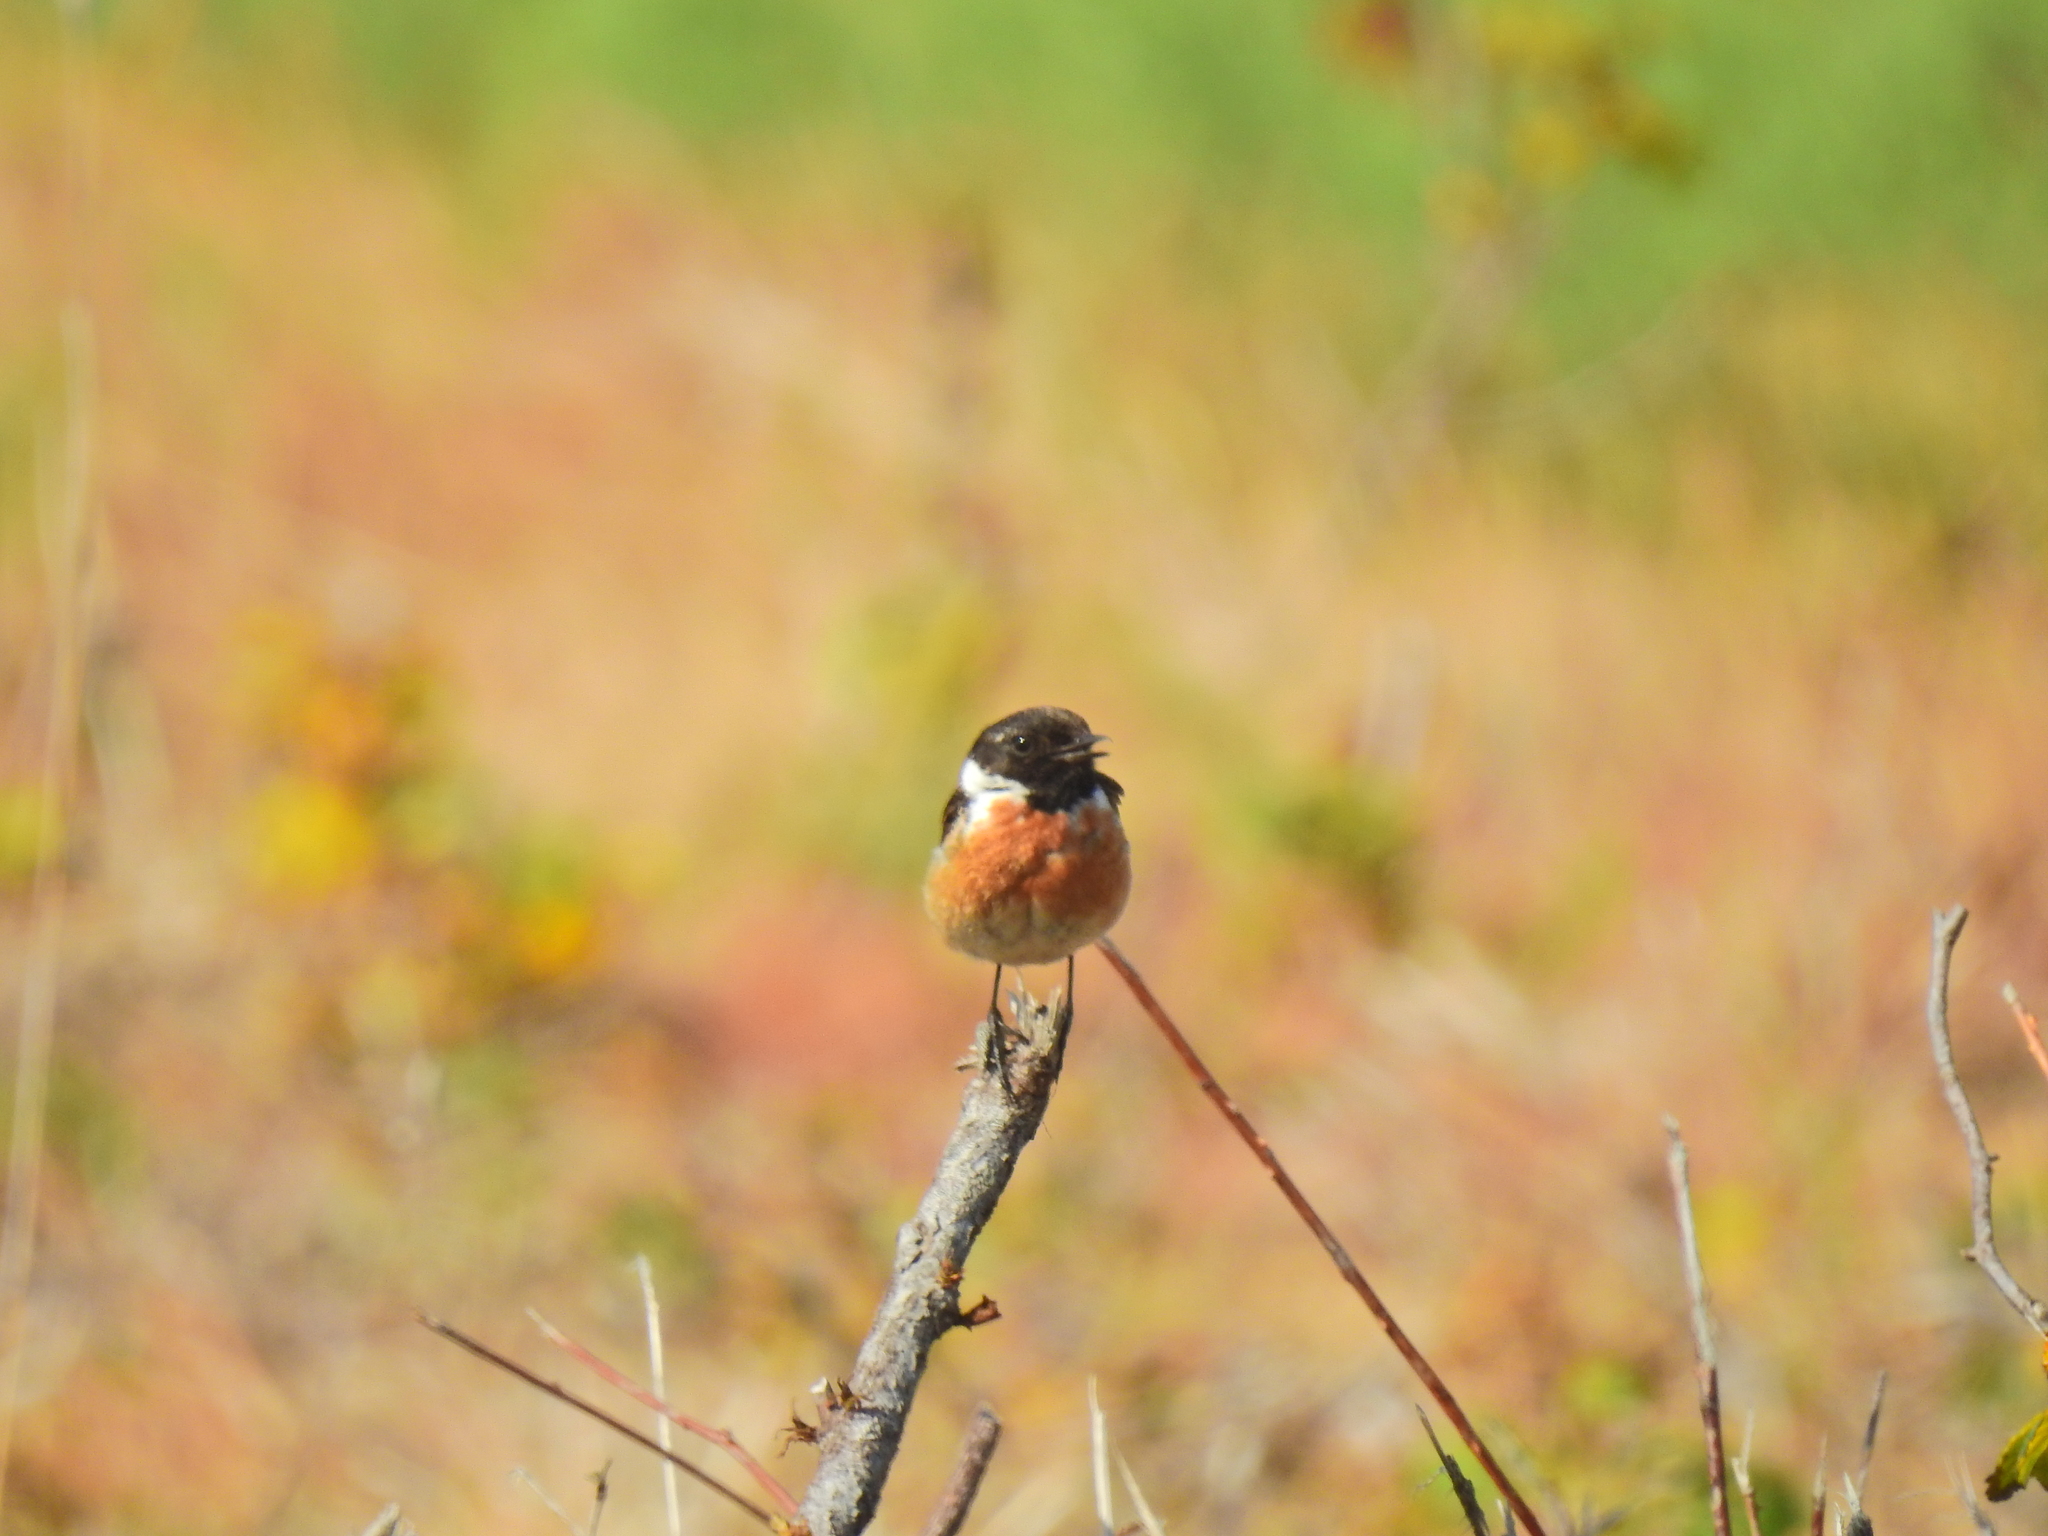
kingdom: Animalia
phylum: Chordata
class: Aves
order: Passeriformes
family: Muscicapidae
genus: Saxicola
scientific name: Saxicola rubicola
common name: European stonechat
